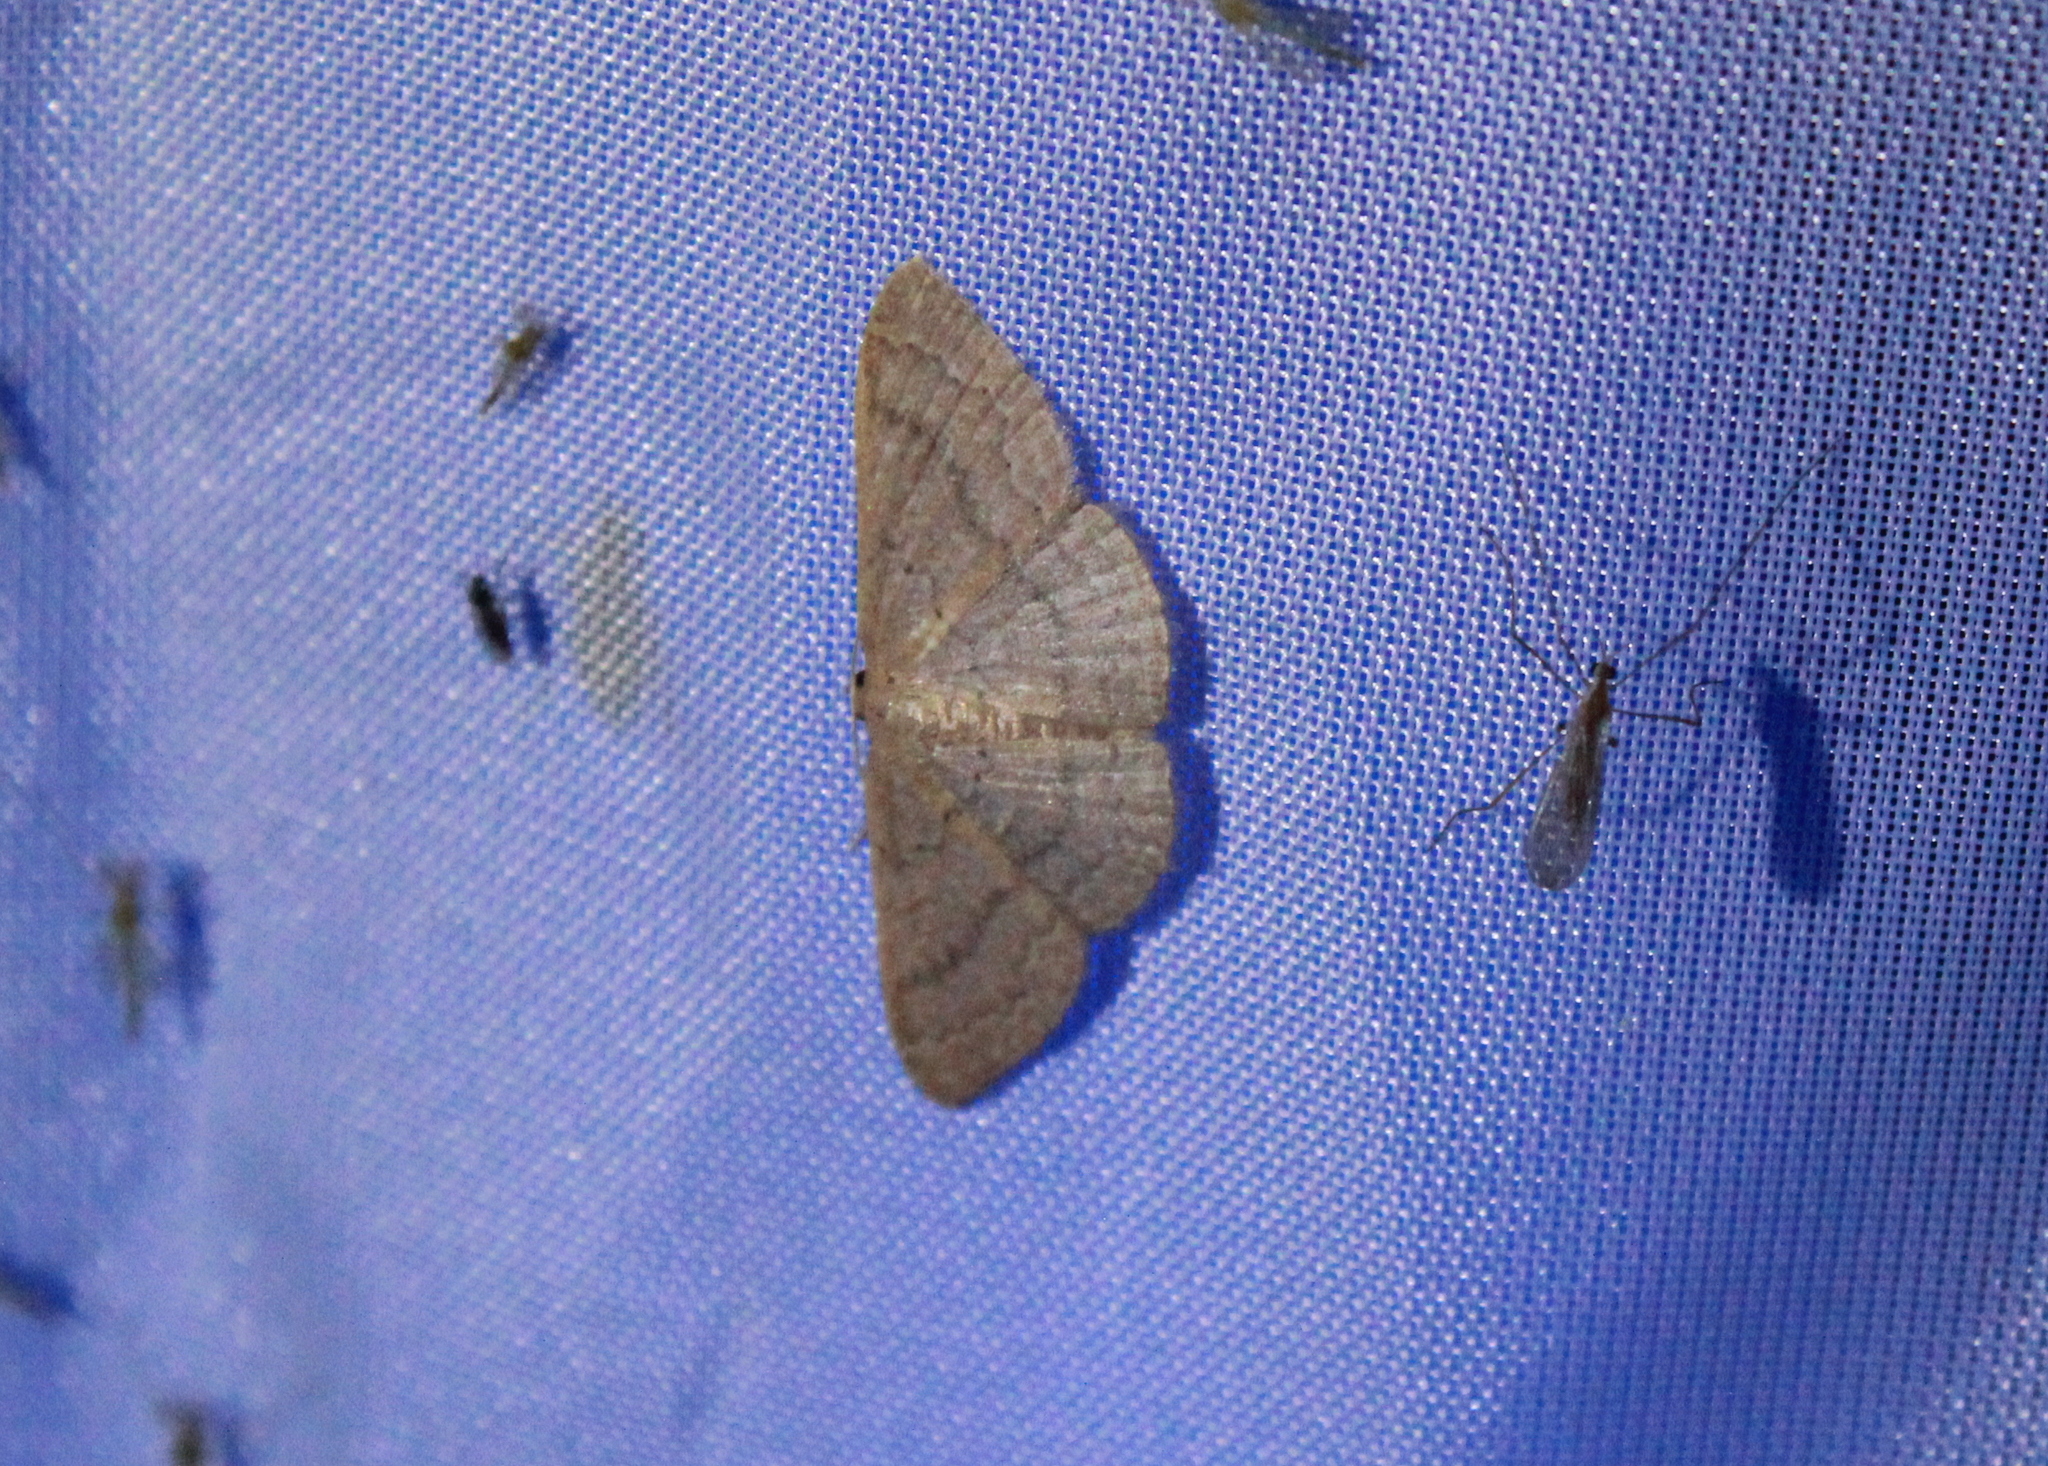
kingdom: Animalia
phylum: Arthropoda
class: Insecta
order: Lepidoptera
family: Geometridae
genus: Pleuroprucha
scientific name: Pleuroprucha insulsaria
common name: Common tan wave
